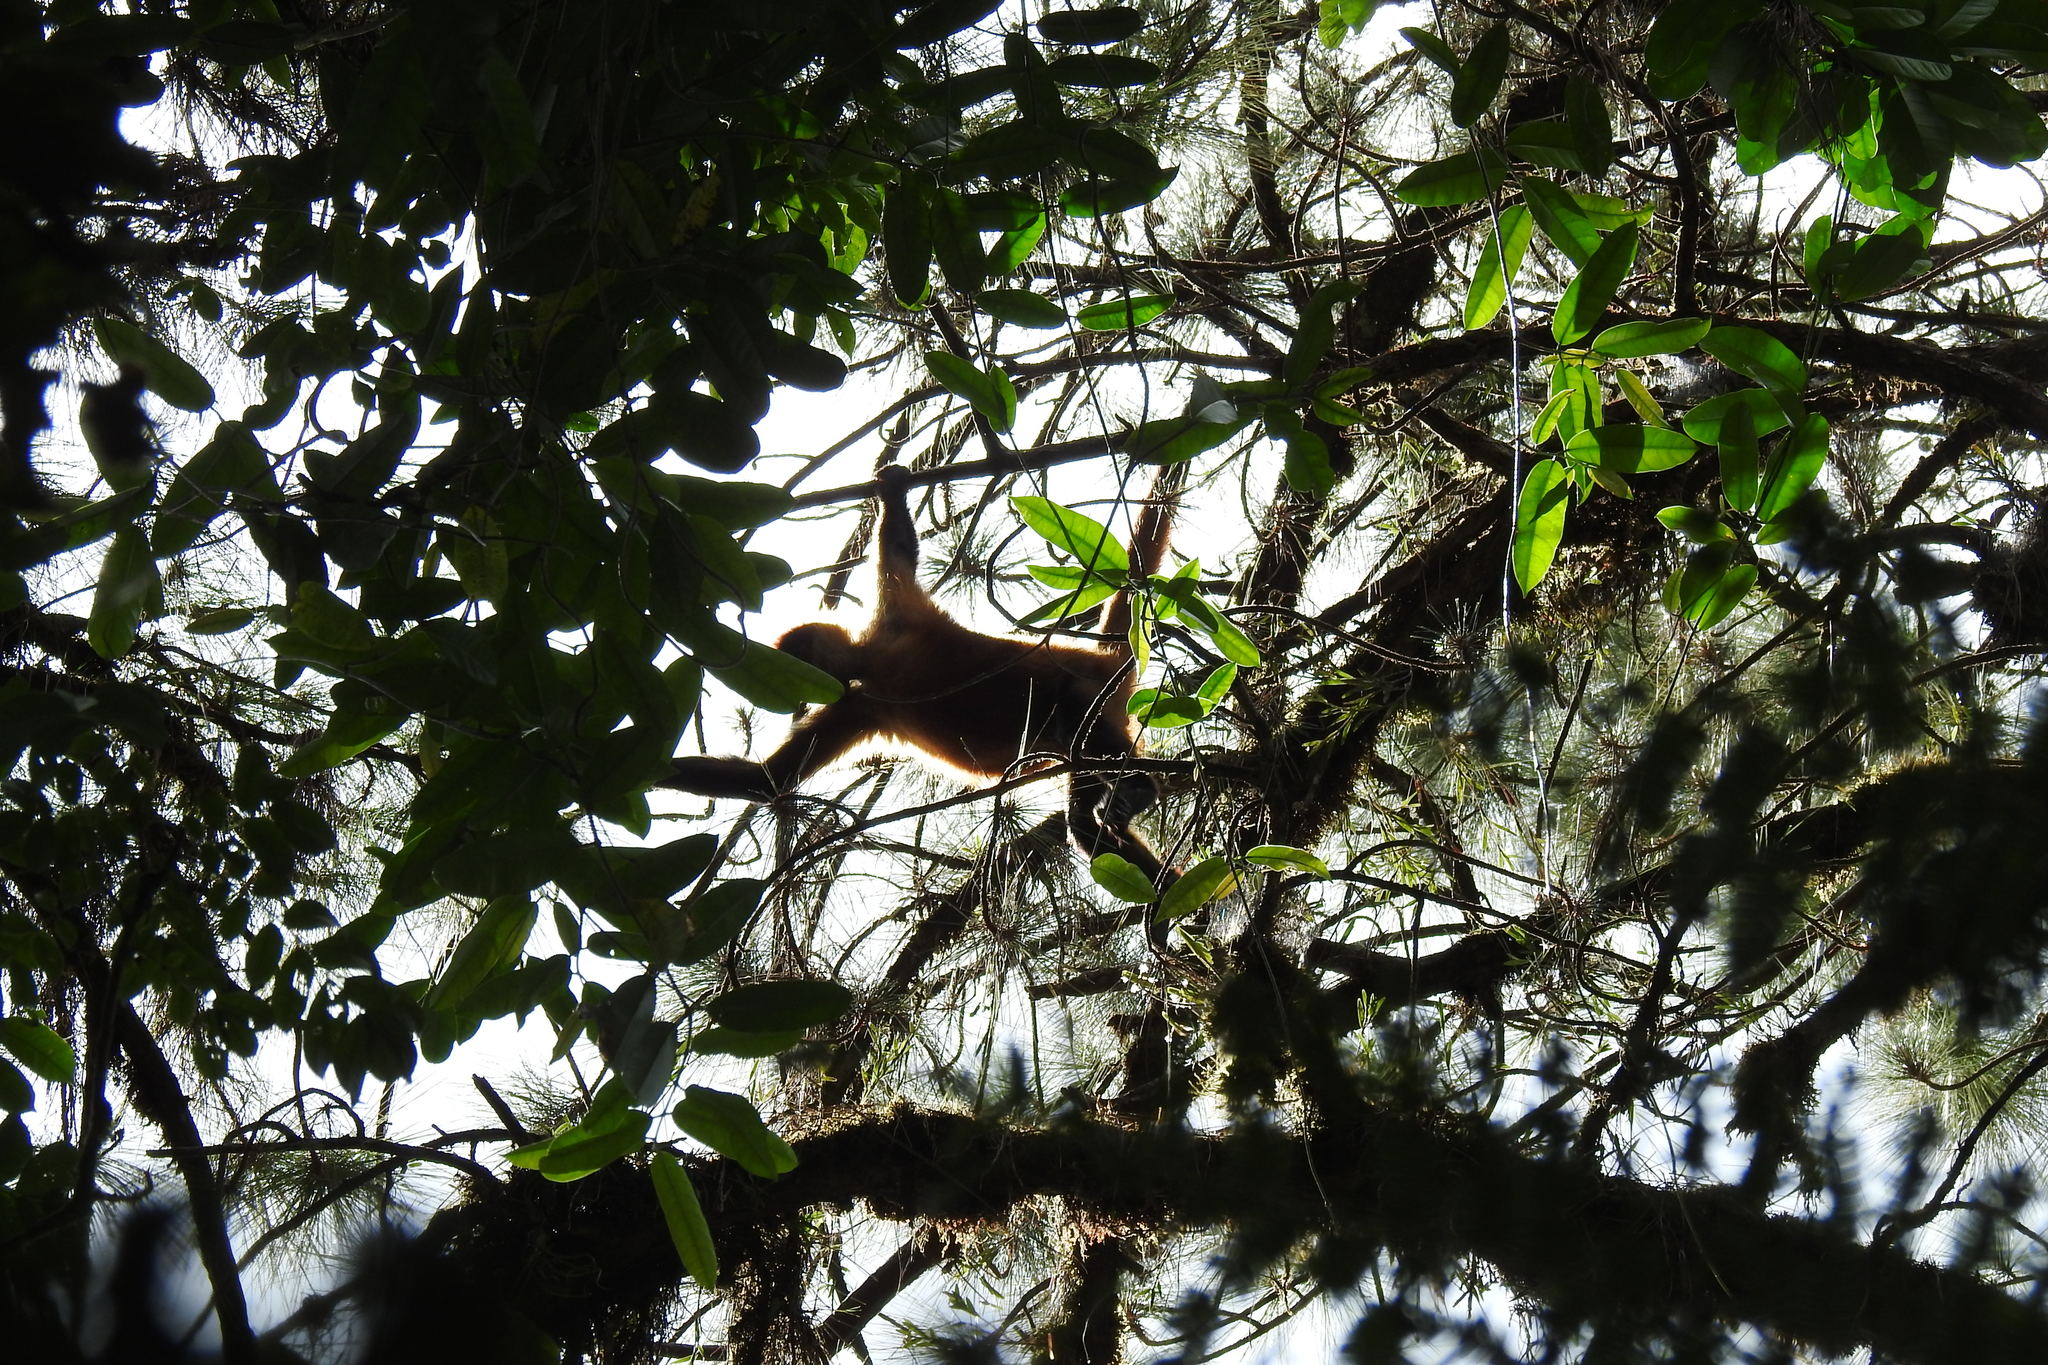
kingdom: Animalia
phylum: Chordata
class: Mammalia
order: Primates
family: Atelidae
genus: Ateles
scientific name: Ateles geoffroyi
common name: Black-handed spider monkey
